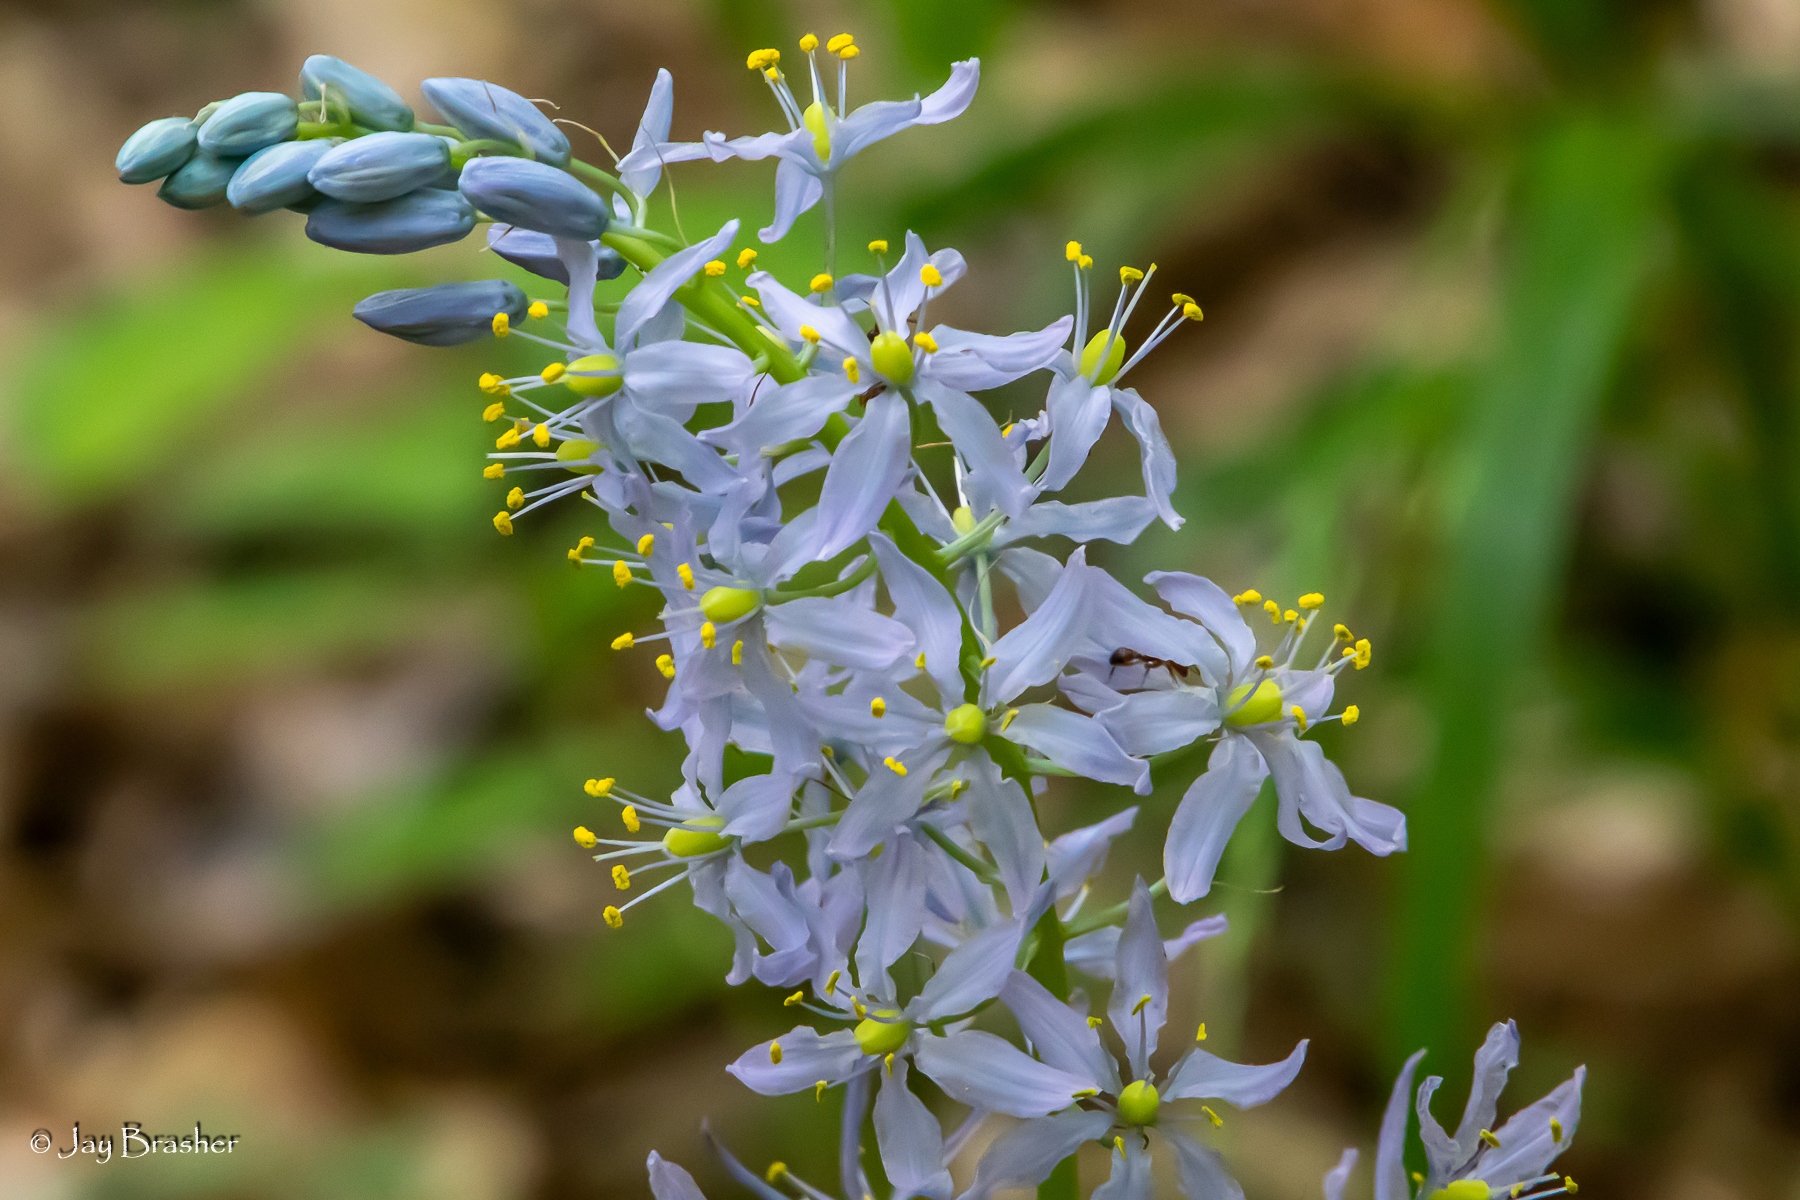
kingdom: Plantae
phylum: Tracheophyta
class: Liliopsida
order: Asparagales
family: Asparagaceae
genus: Camassia
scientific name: Camassia scilloides
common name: Wild hyacinth
